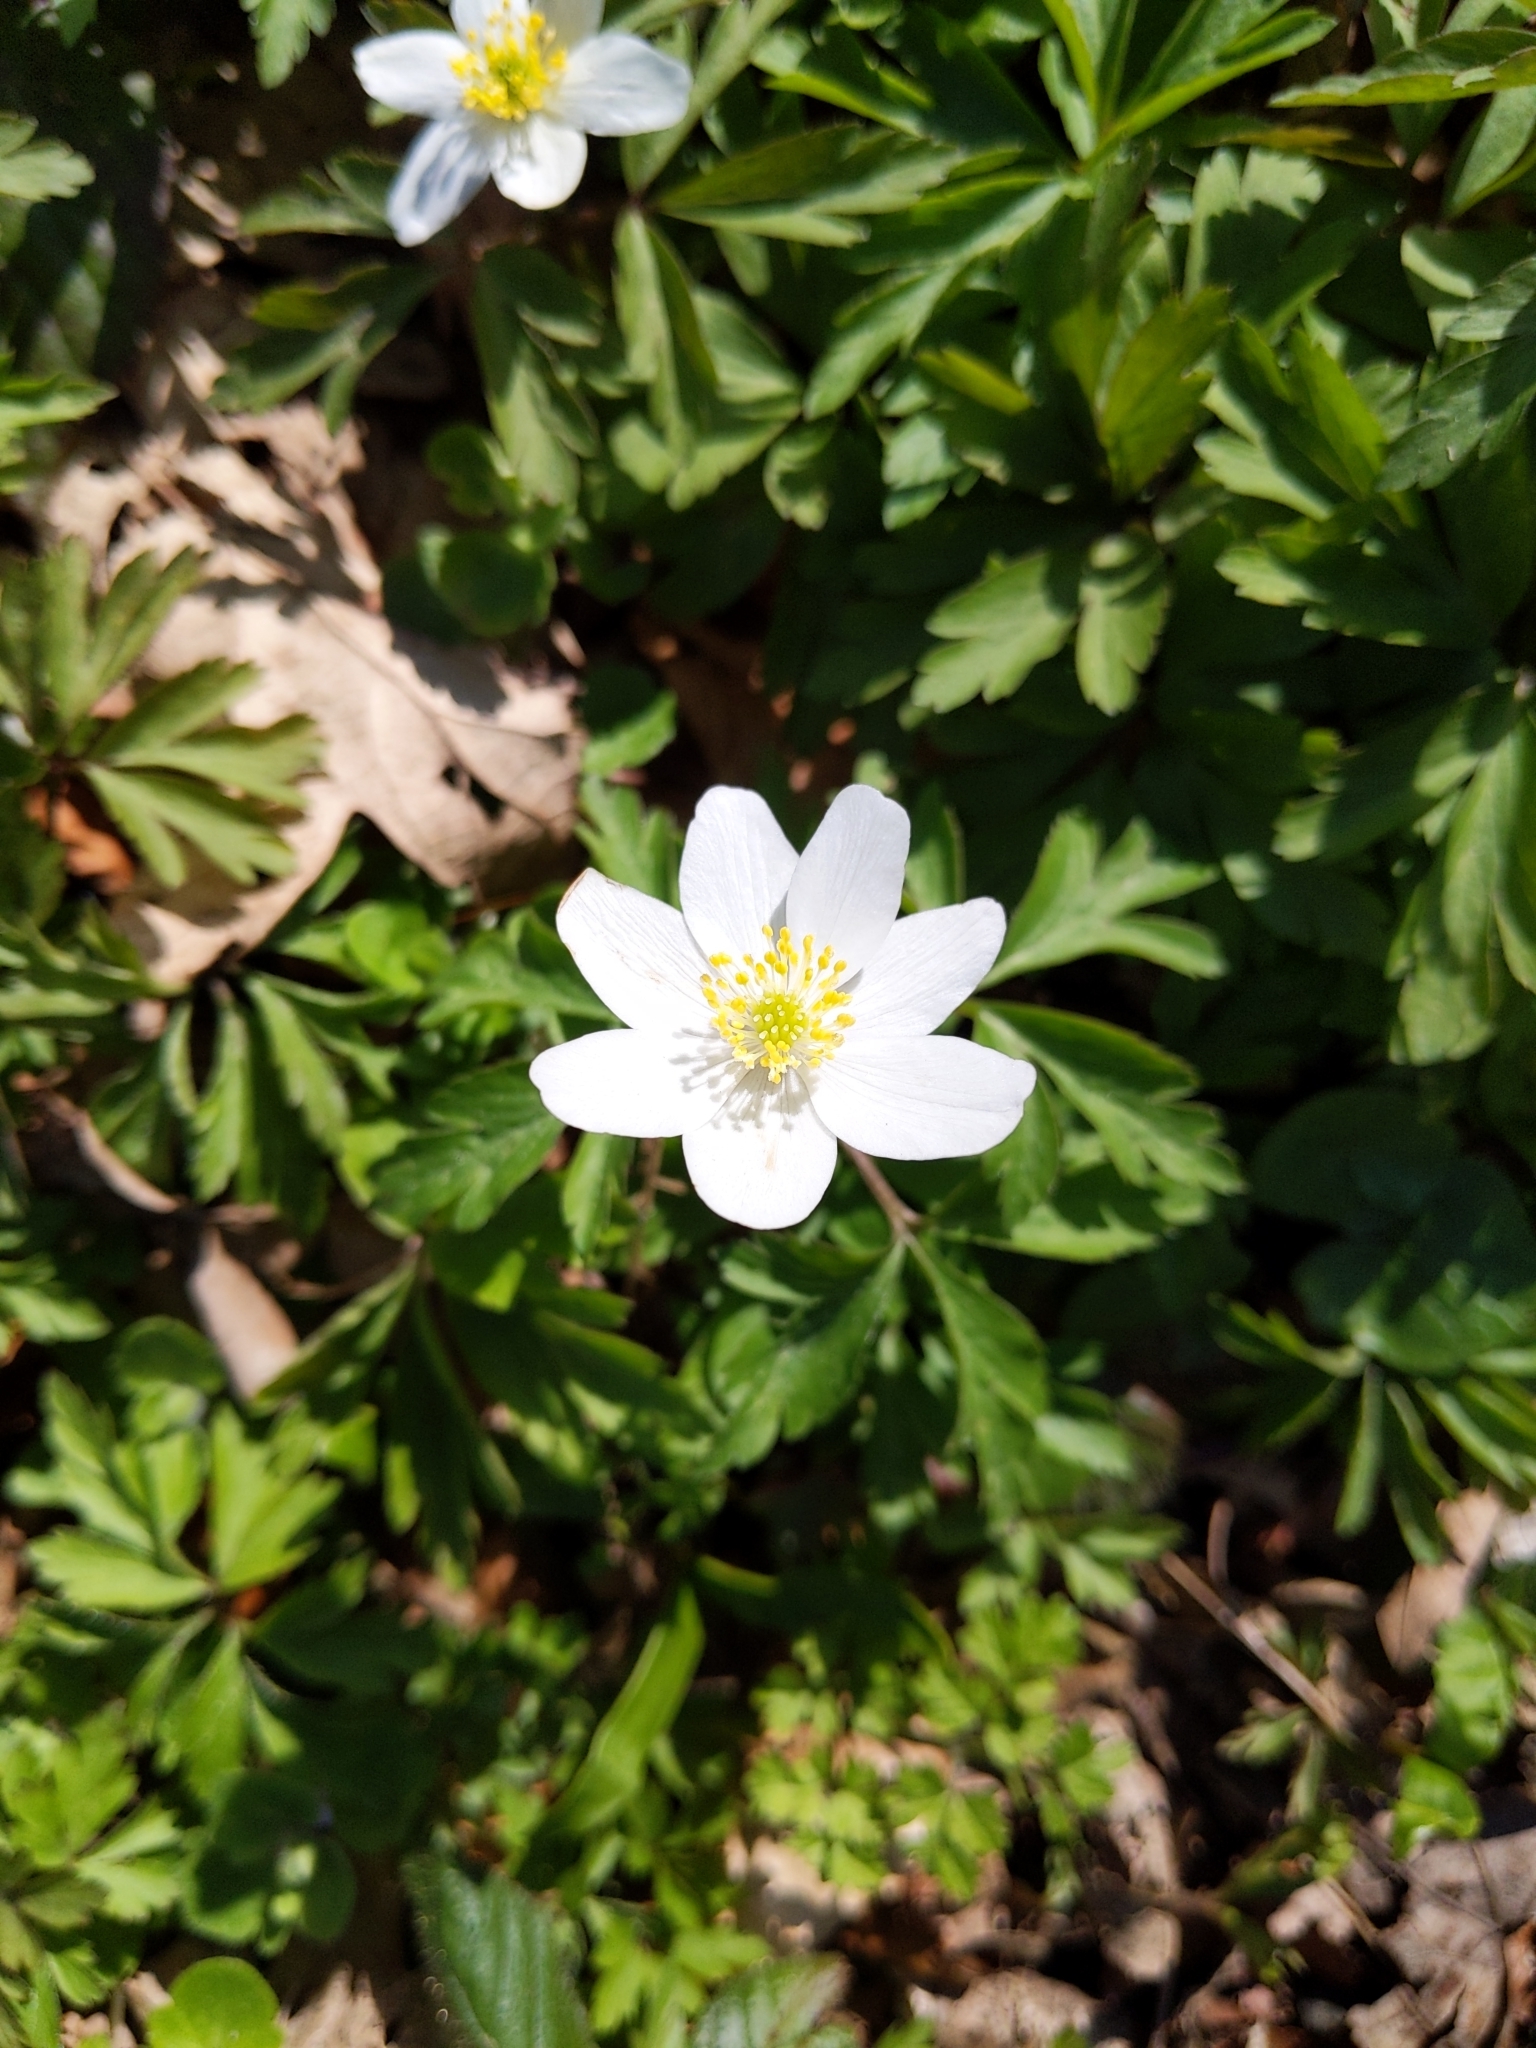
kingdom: Plantae
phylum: Tracheophyta
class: Magnoliopsida
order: Ranunculales
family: Ranunculaceae
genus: Anemone
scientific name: Anemone nemorosa
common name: Wood anemone
